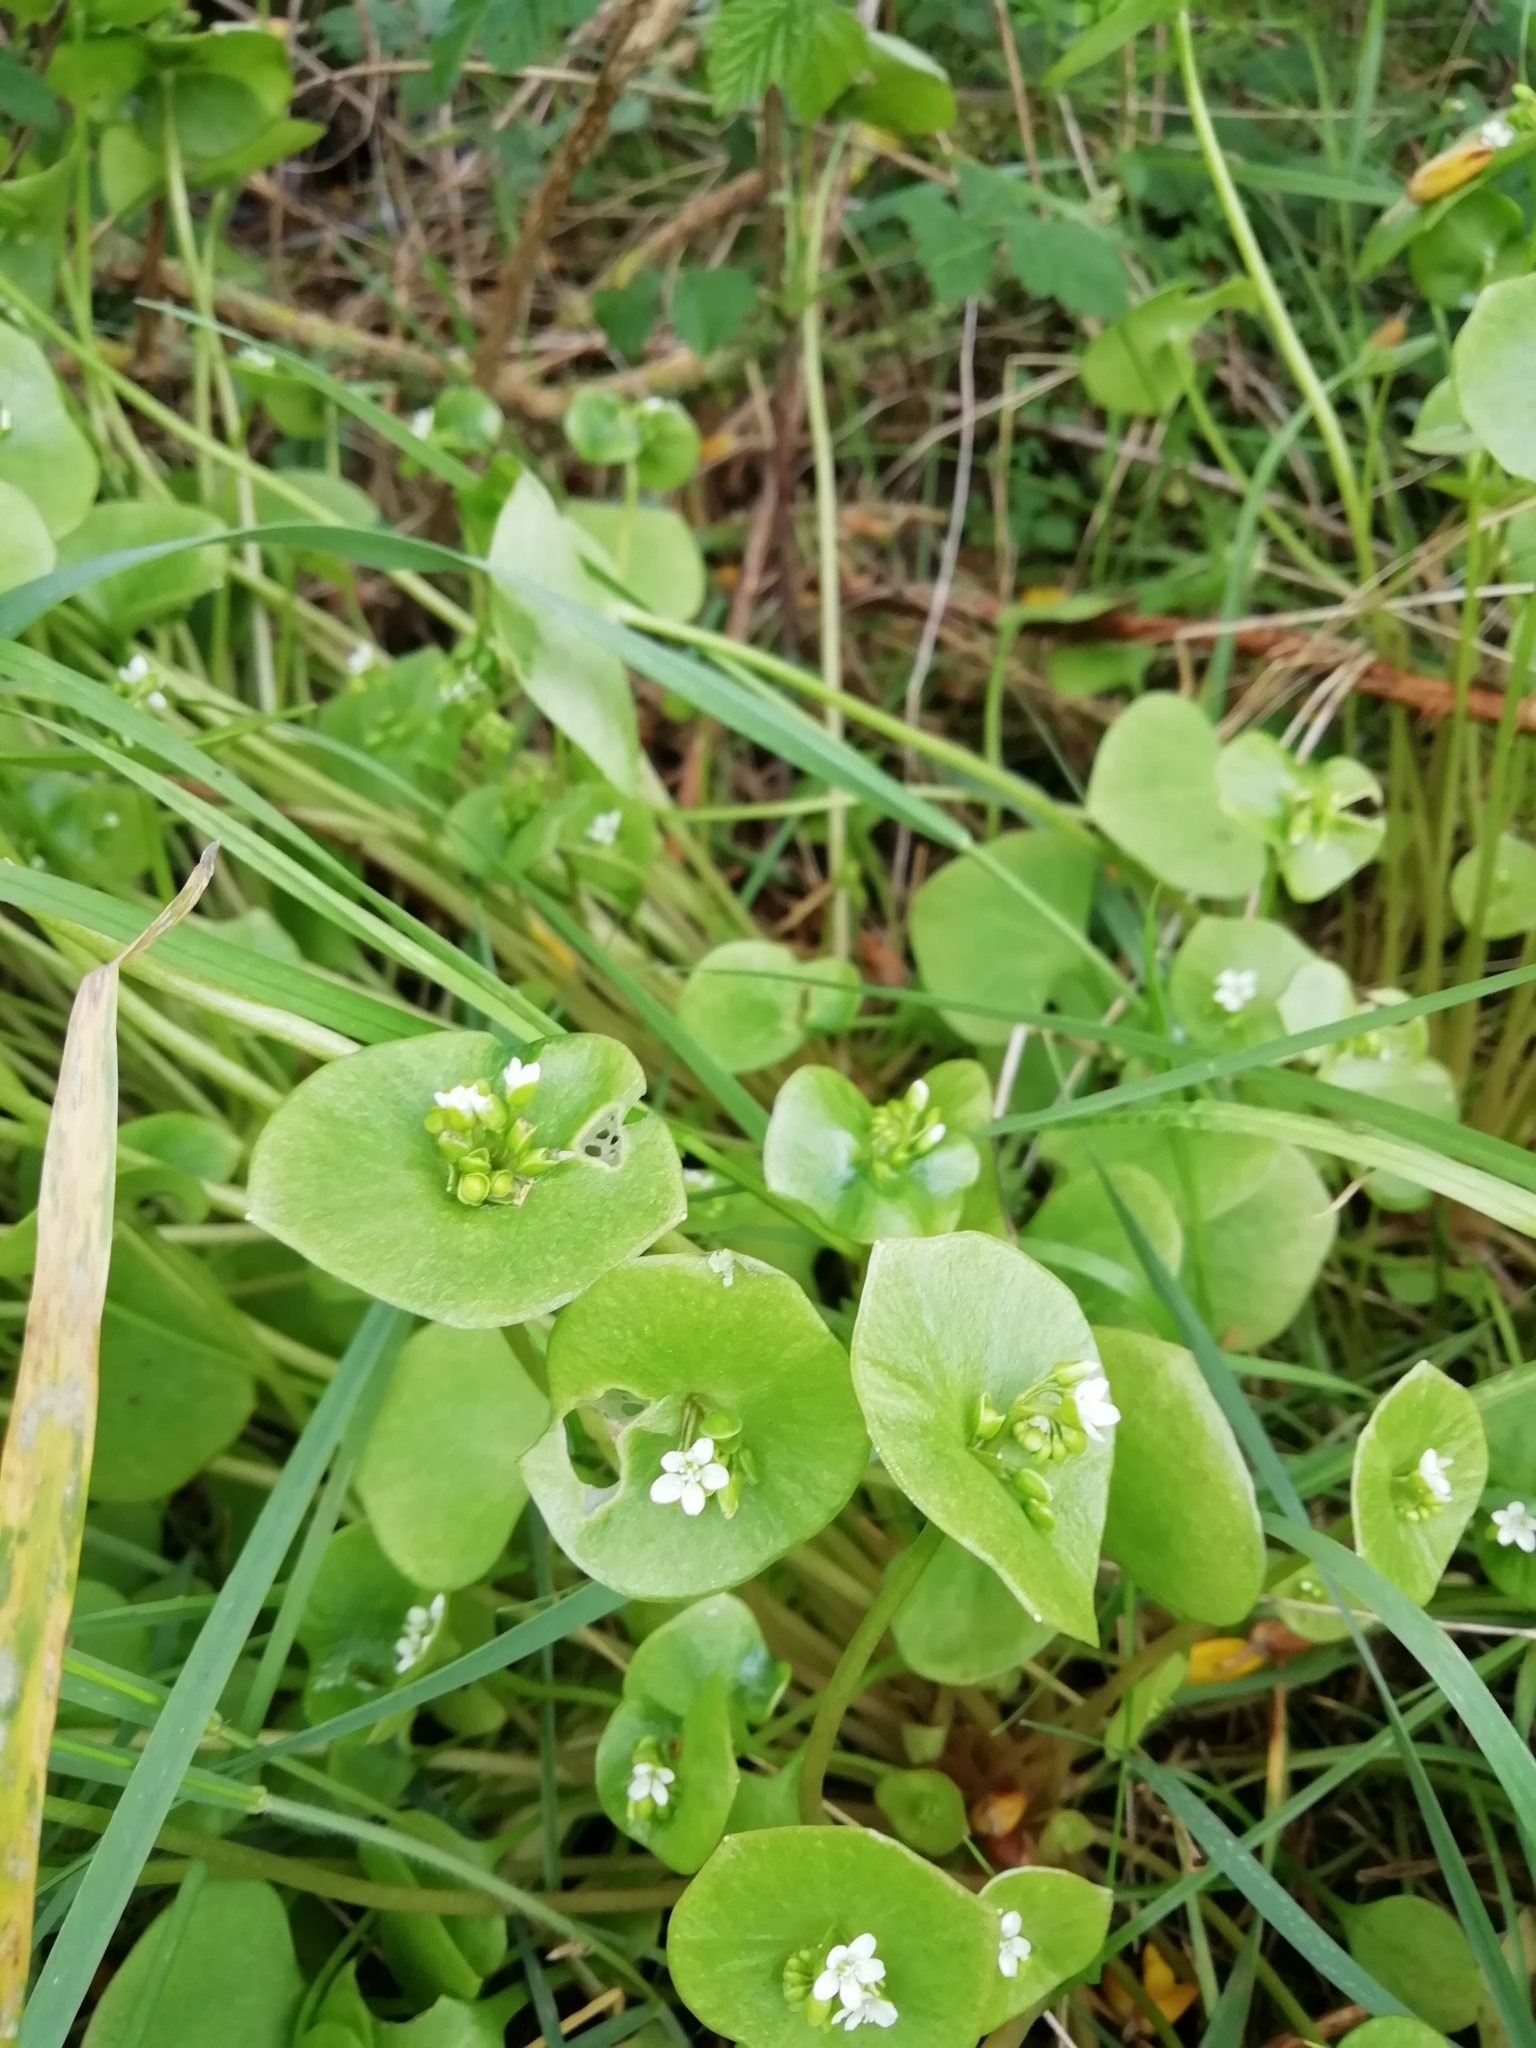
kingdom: Plantae
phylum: Tracheophyta
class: Magnoliopsida
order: Caryophyllales
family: Montiaceae
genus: Claytonia
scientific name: Claytonia perfoliata
